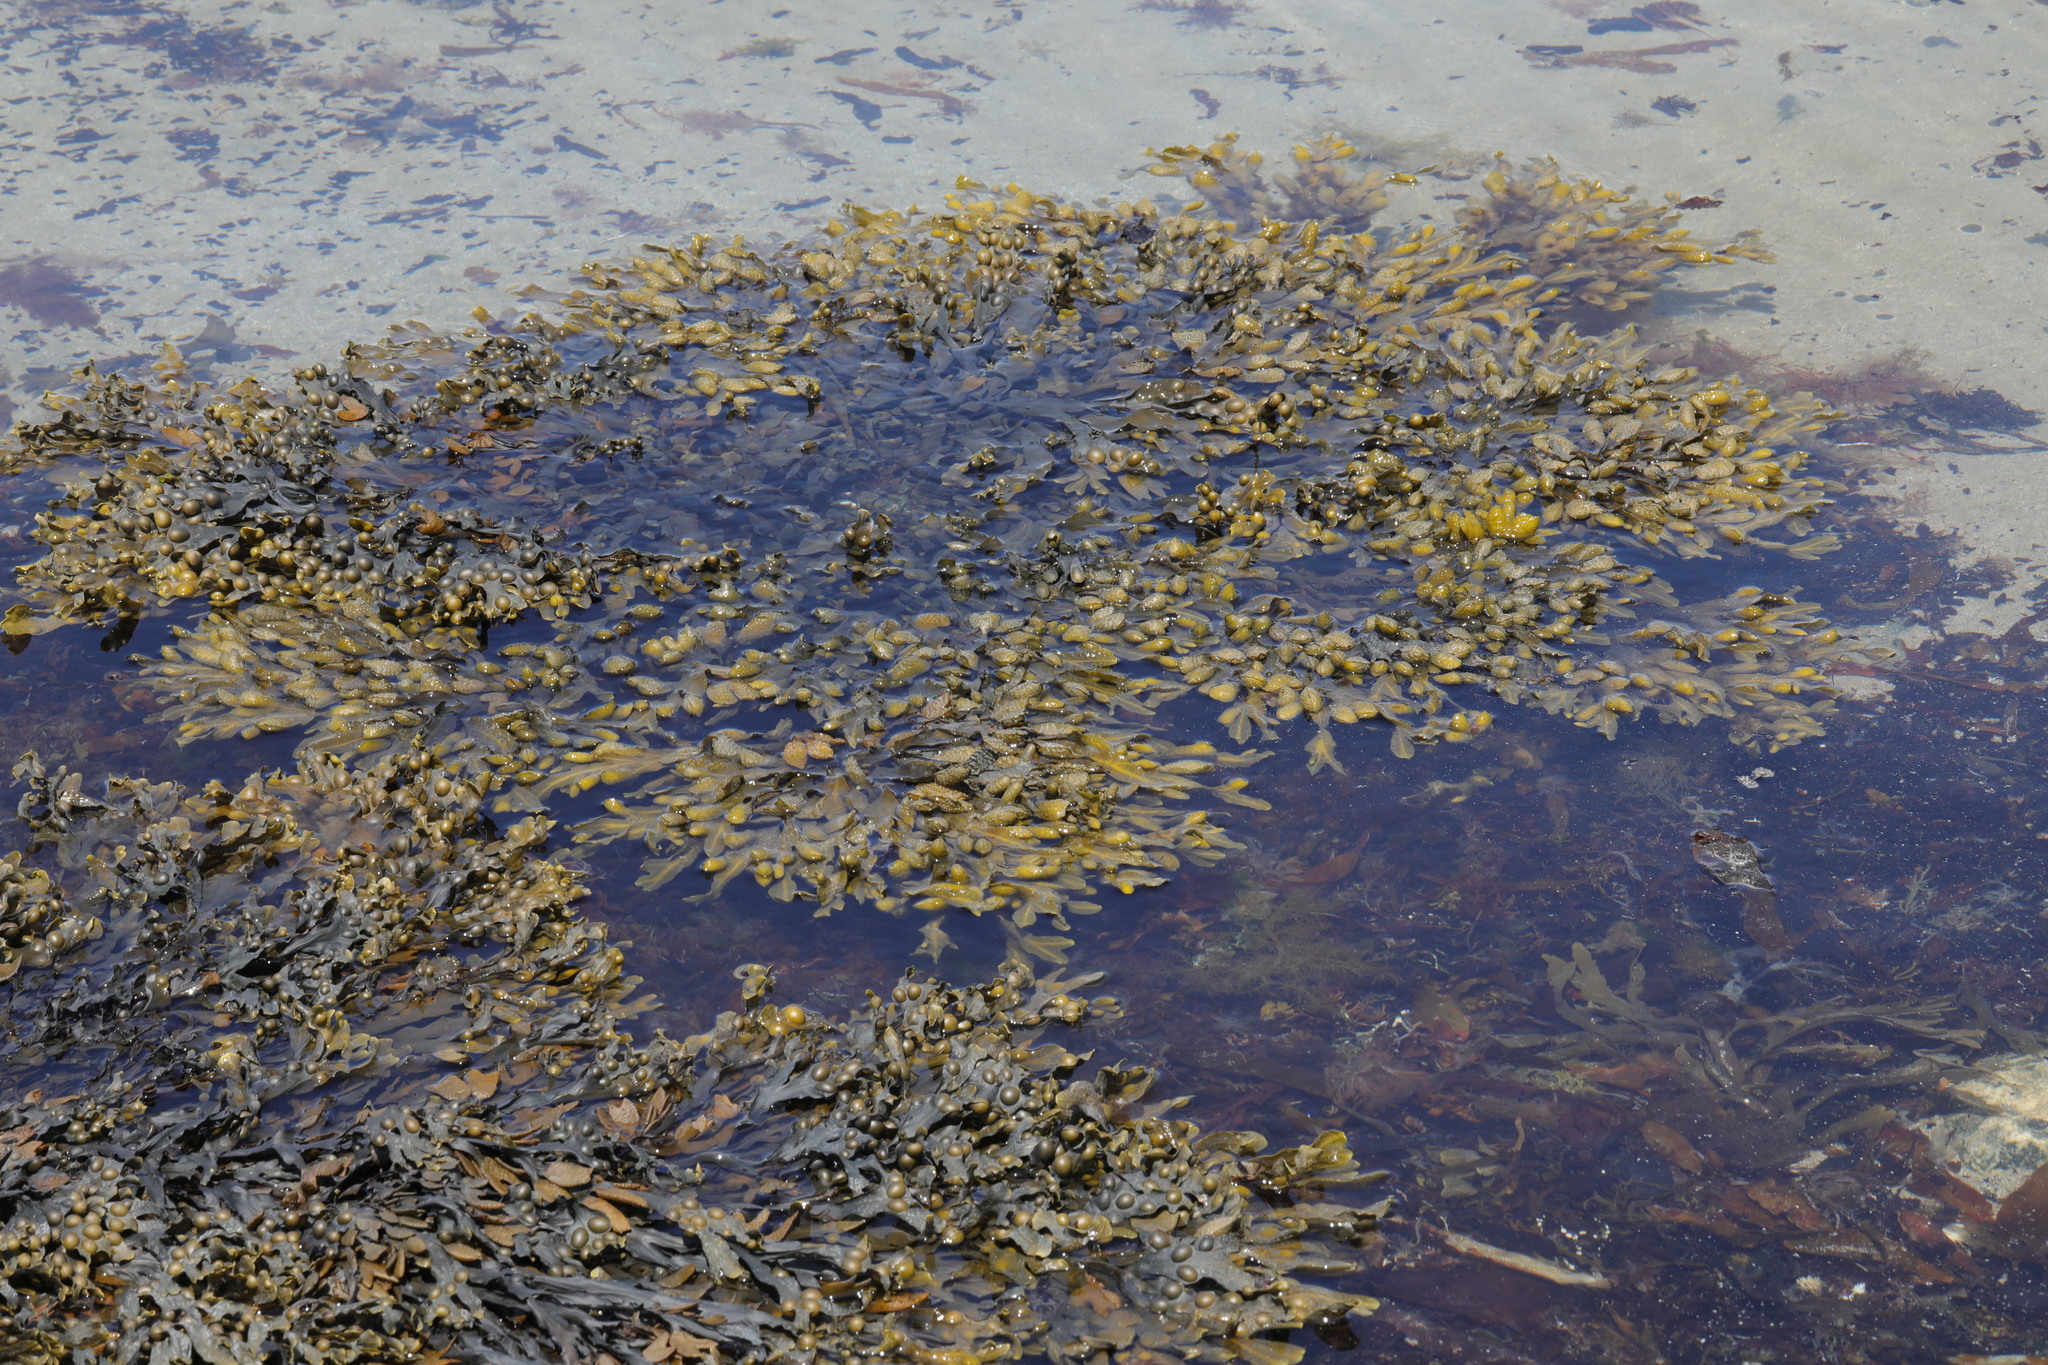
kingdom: Chromista
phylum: Ochrophyta
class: Phaeophyceae
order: Fucales
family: Fucaceae
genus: Fucus
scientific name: Fucus vesiculosus
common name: Bladder wrack
